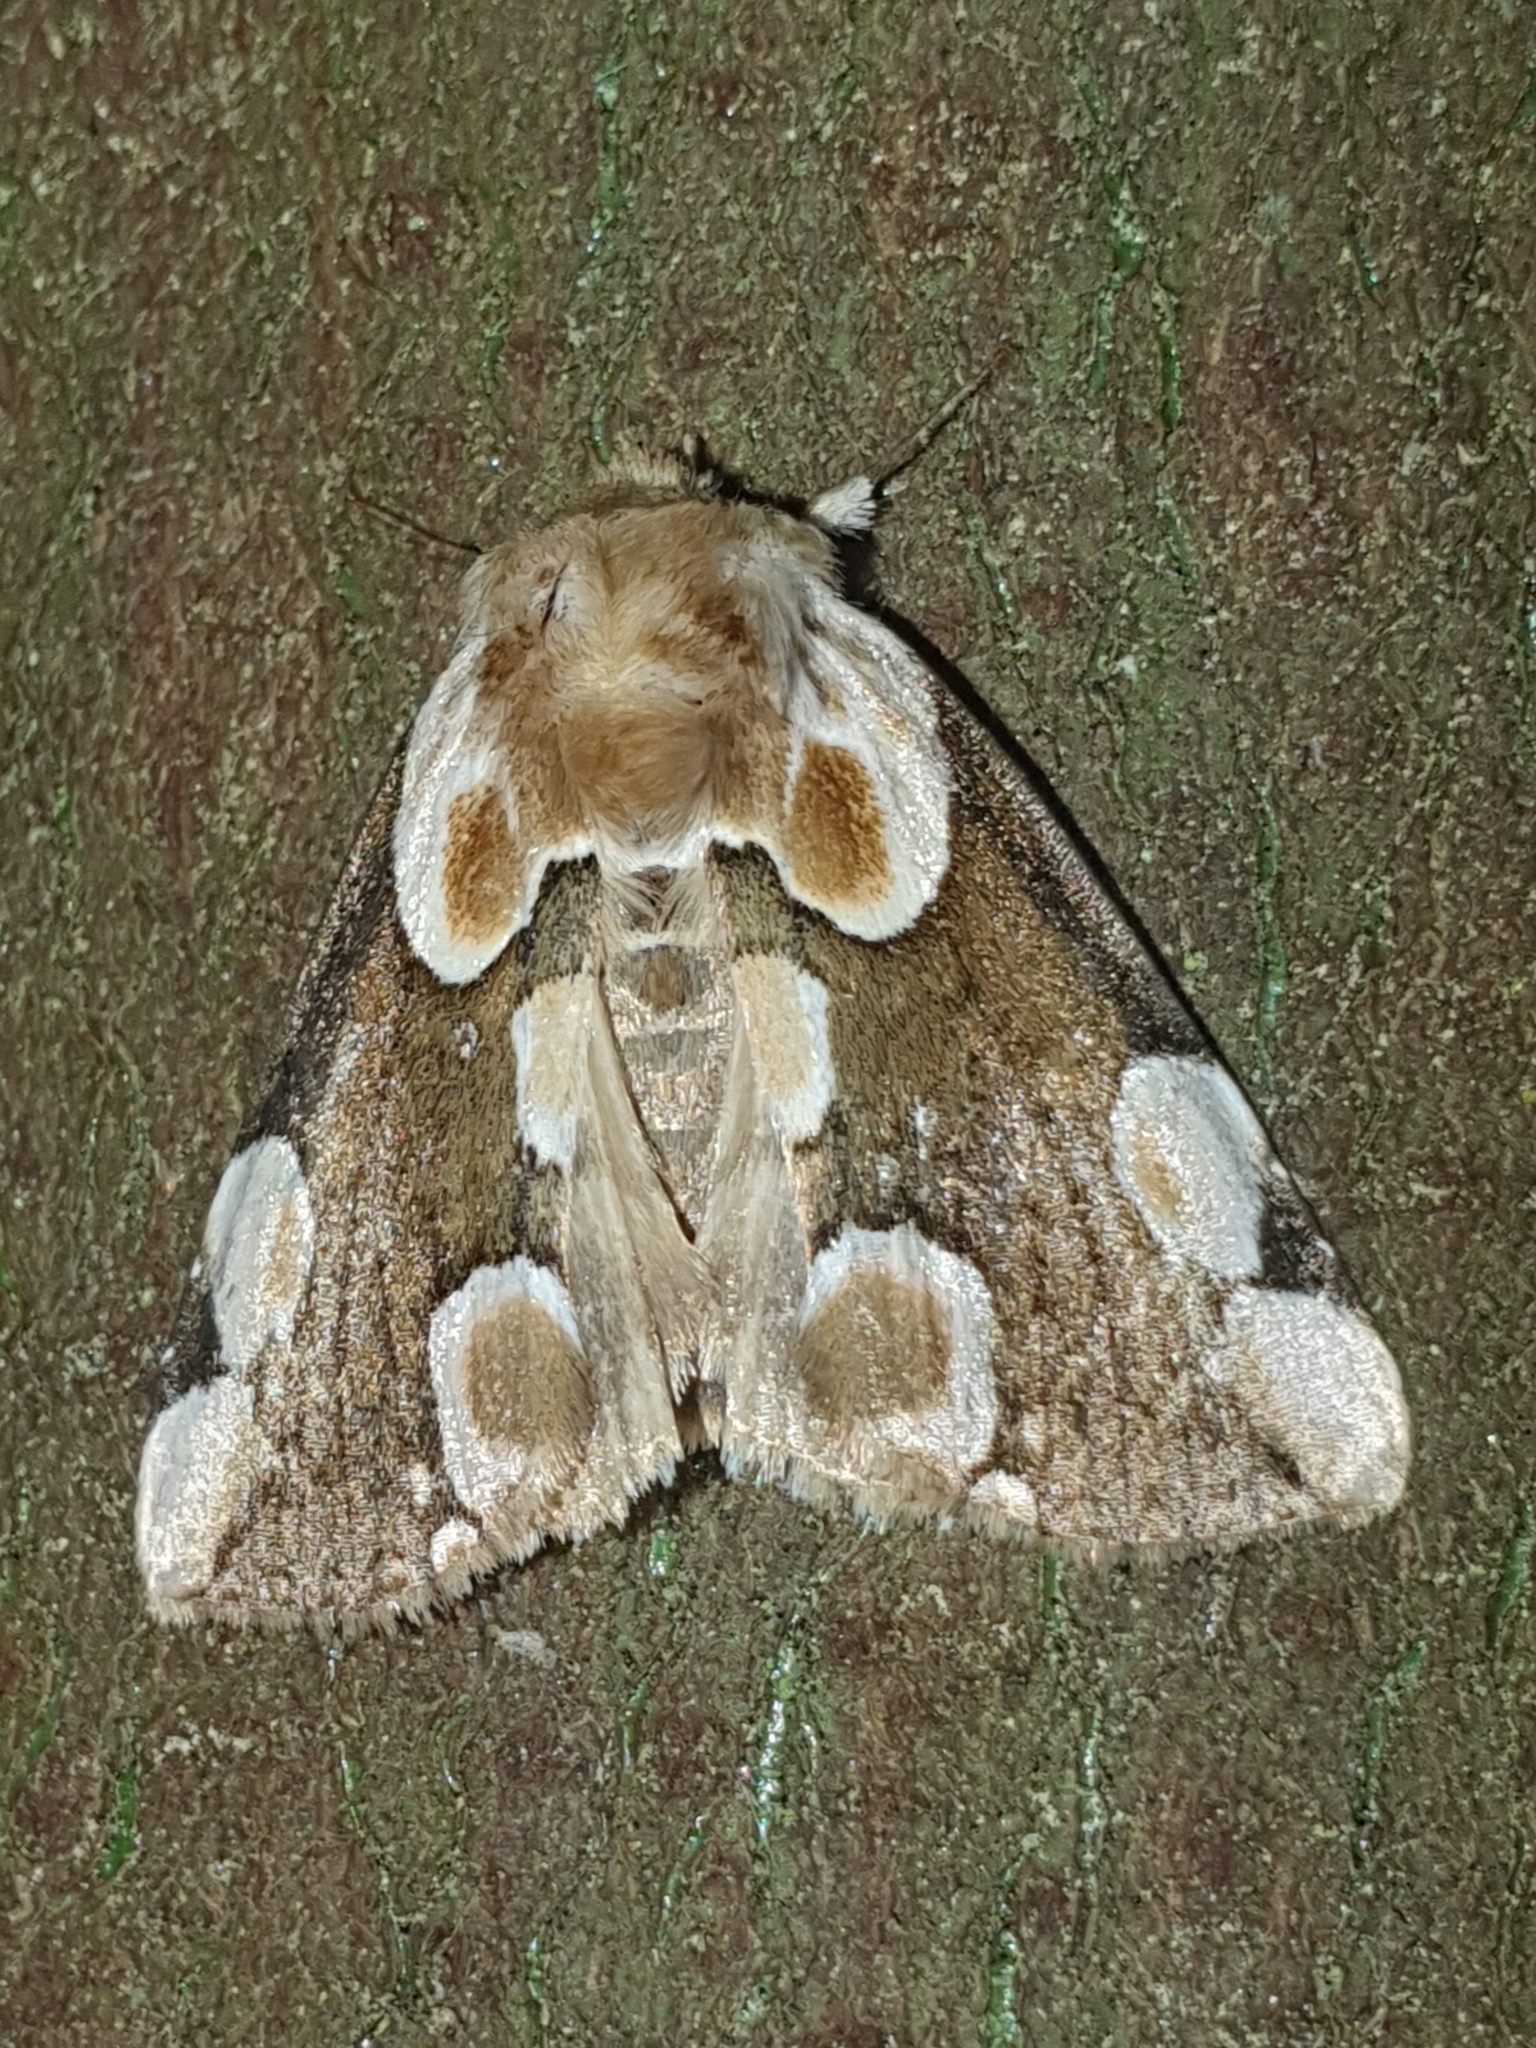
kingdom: Animalia
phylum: Arthropoda
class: Insecta
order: Lepidoptera
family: Drepanidae
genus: Thyatira
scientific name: Thyatira batis
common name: Peach blossom
